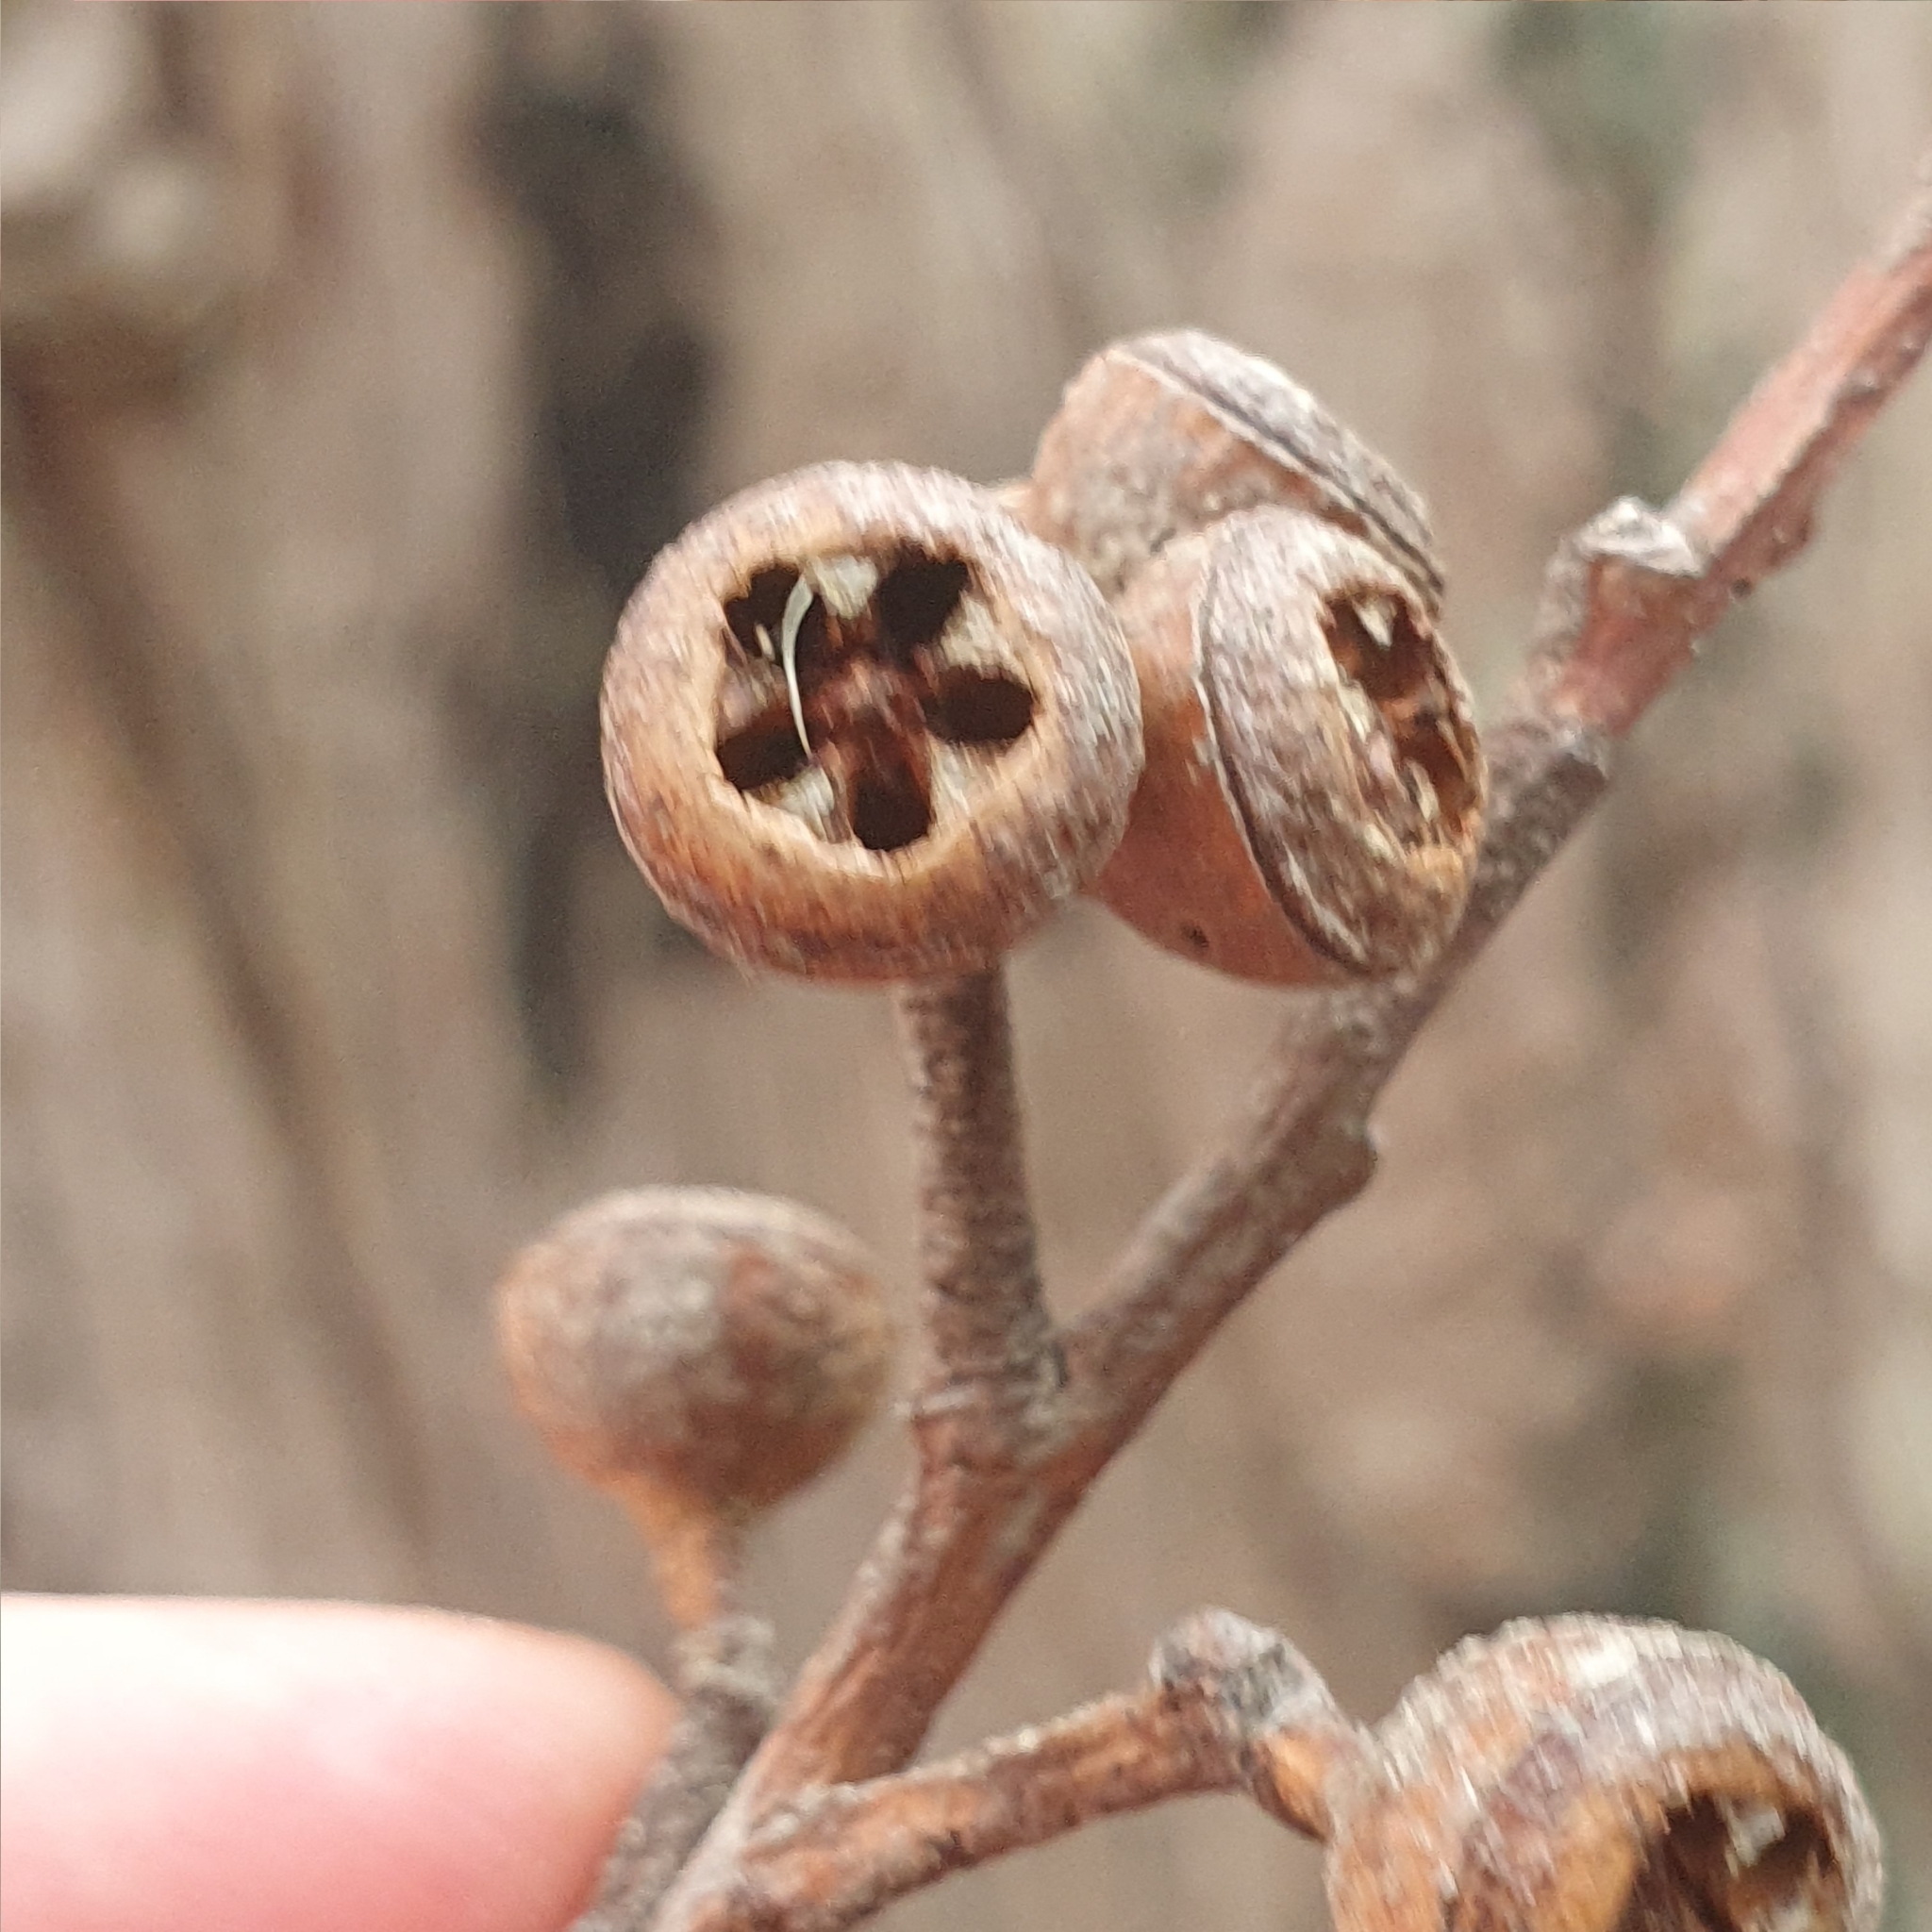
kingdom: Plantae
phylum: Tracheophyta
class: Magnoliopsida
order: Myrtales
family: Myrtaceae
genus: Eucalyptus
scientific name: Eucalyptus umbra
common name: White-mahogany
